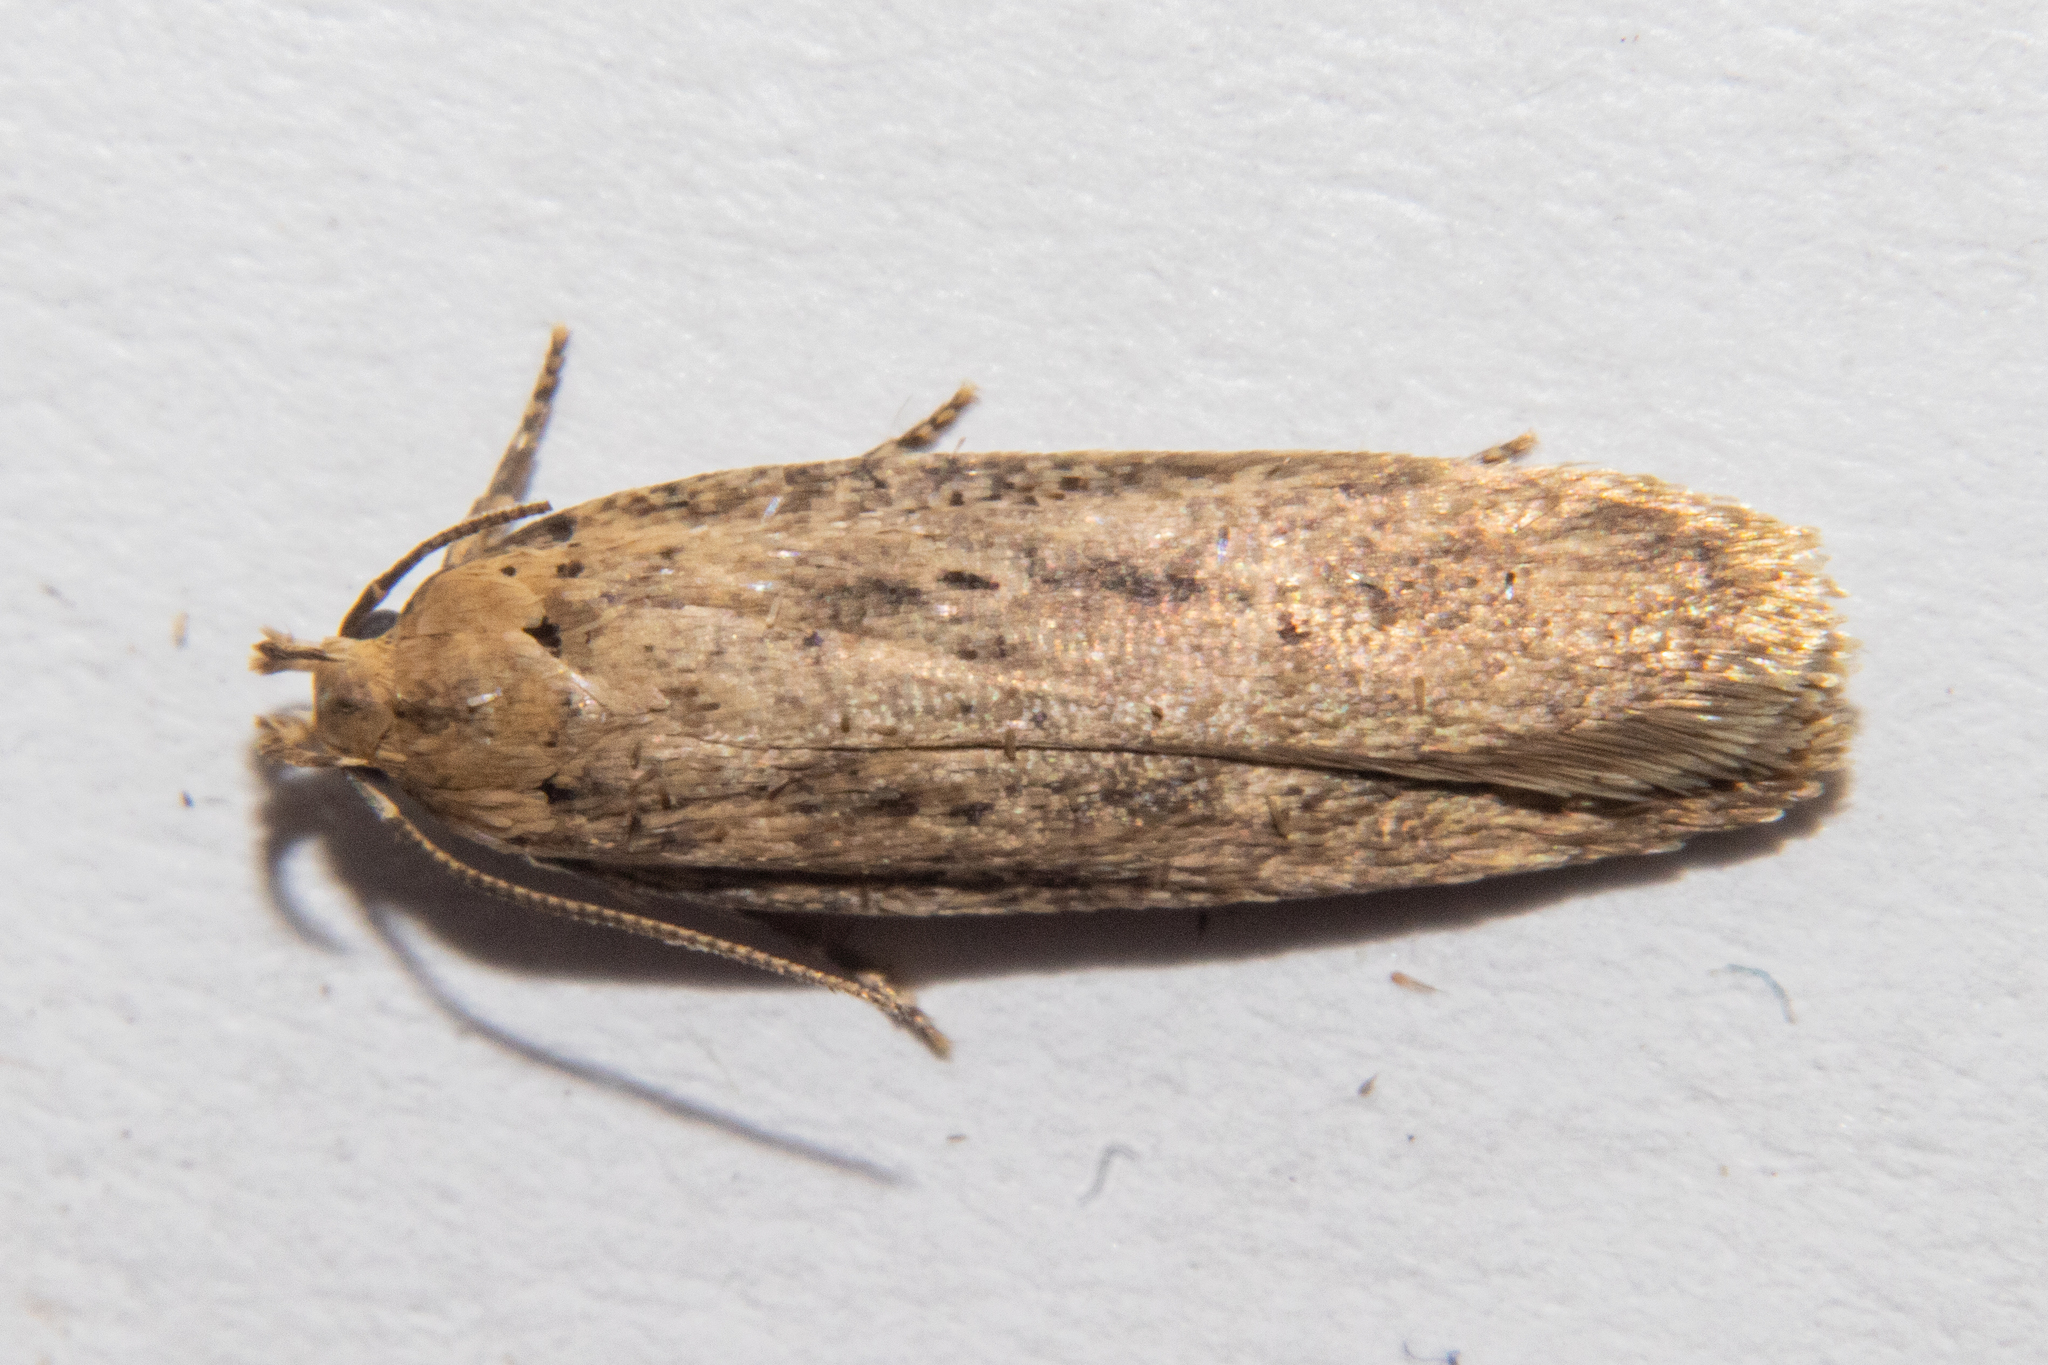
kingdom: Animalia
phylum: Arthropoda
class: Insecta
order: Lepidoptera
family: Gelechiidae
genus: Platyedra
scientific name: Platyedra subcinerea
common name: Moth
